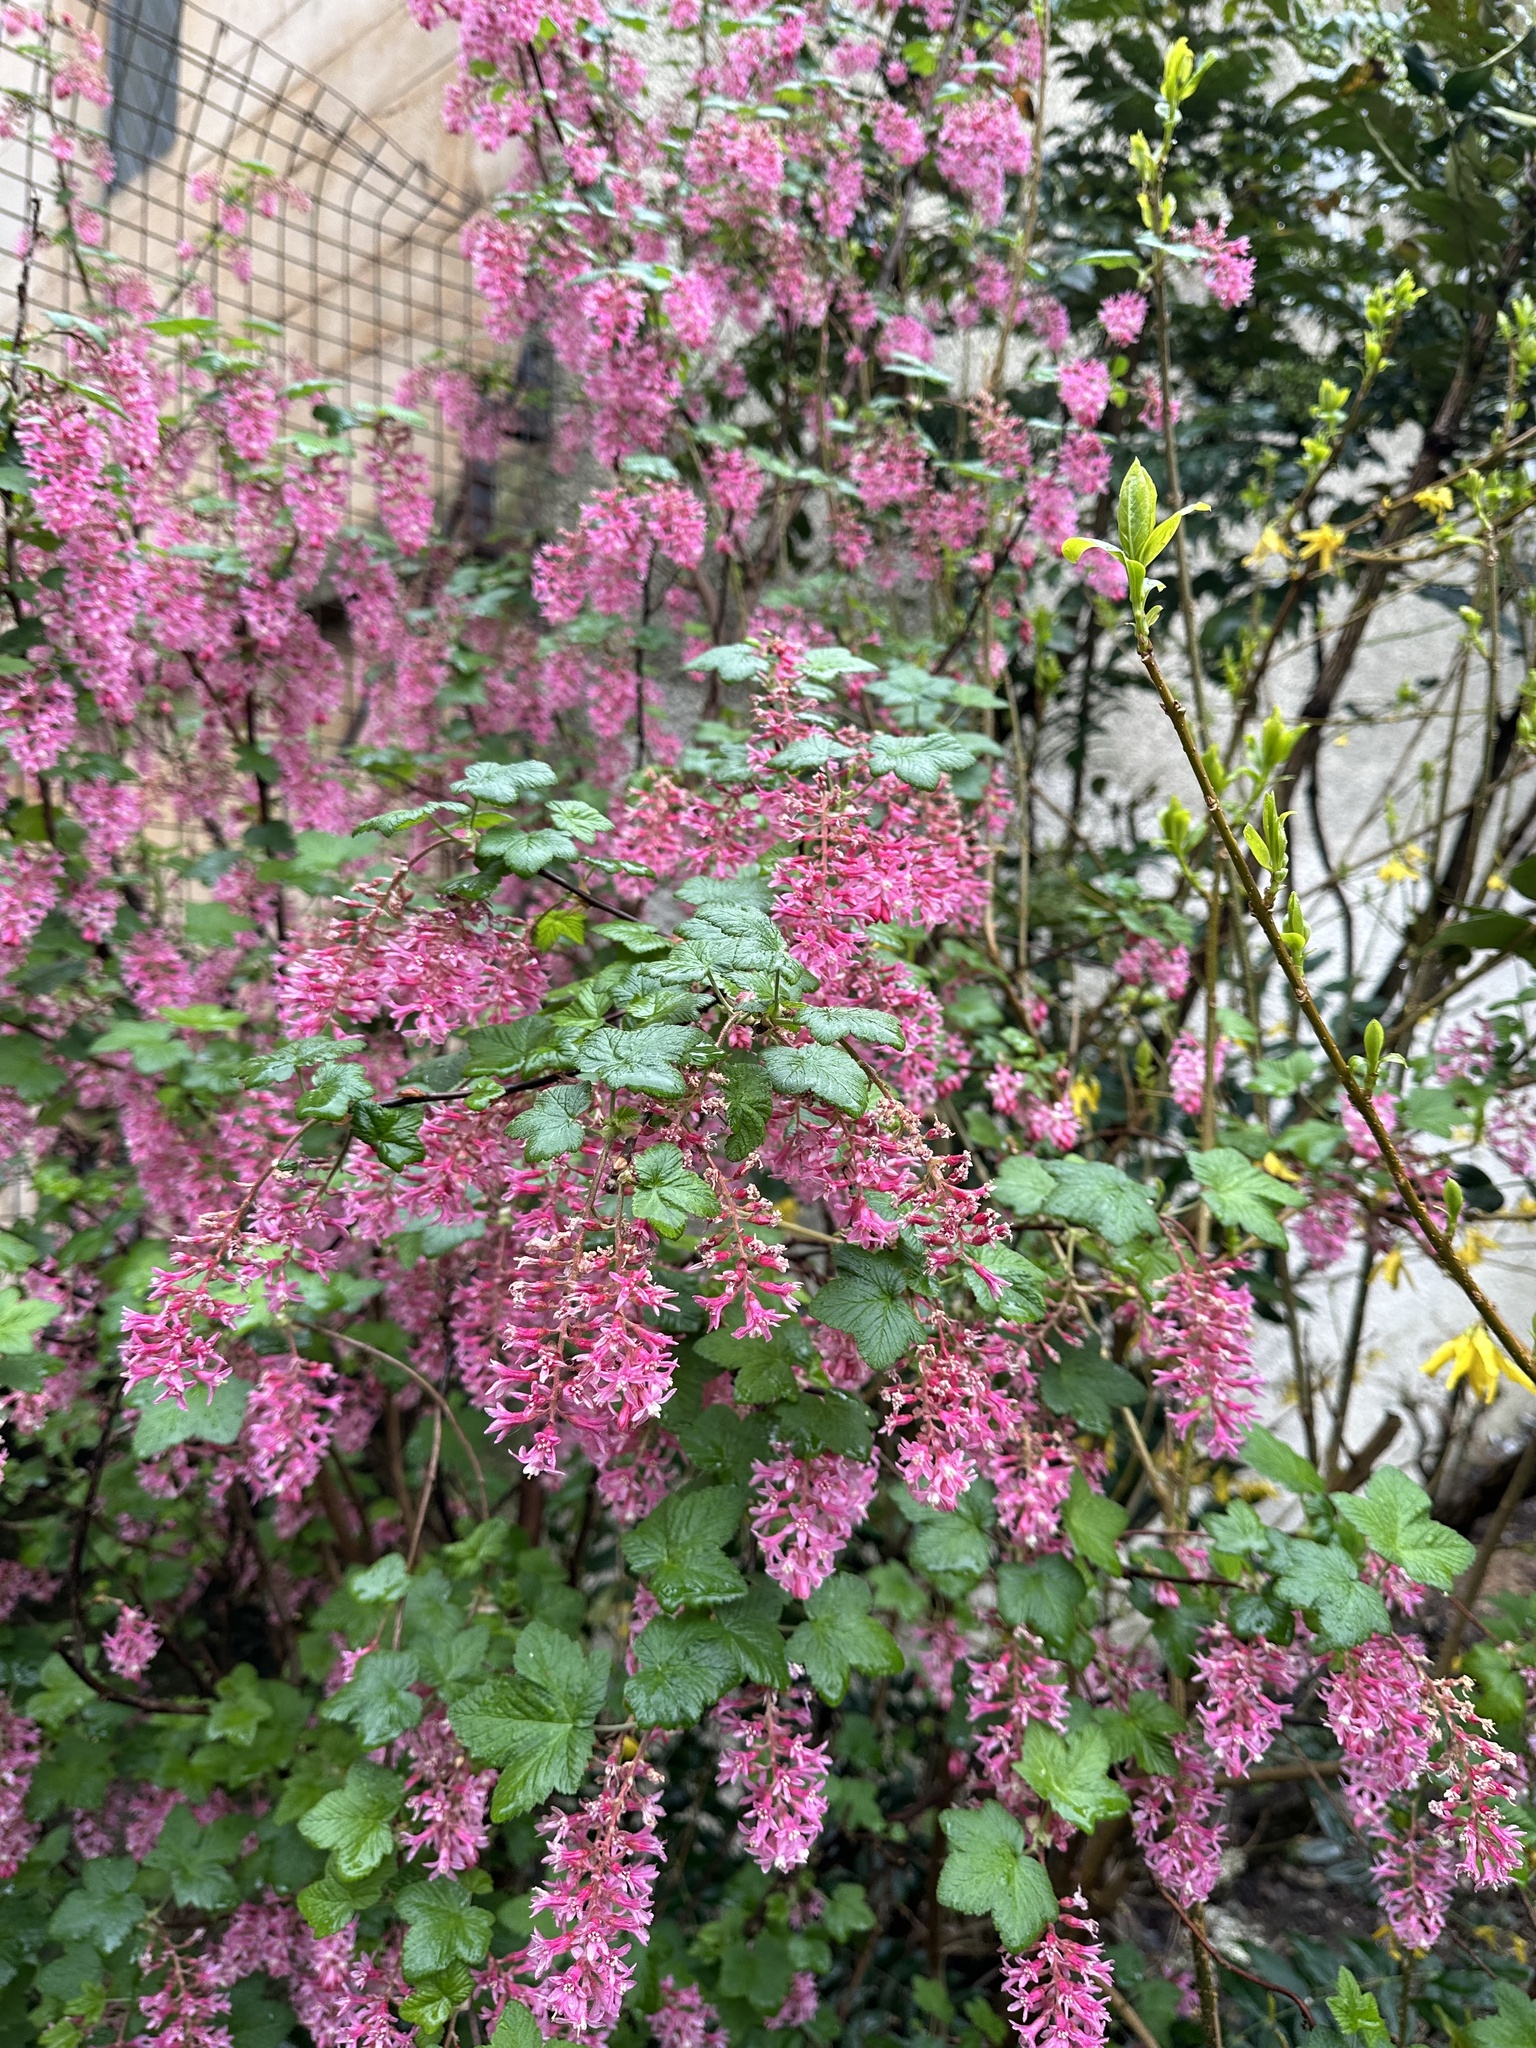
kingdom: Plantae
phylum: Tracheophyta
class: Magnoliopsida
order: Saxifragales
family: Grossulariaceae
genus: Ribes
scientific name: Ribes sanguineum
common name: Flowering currant
